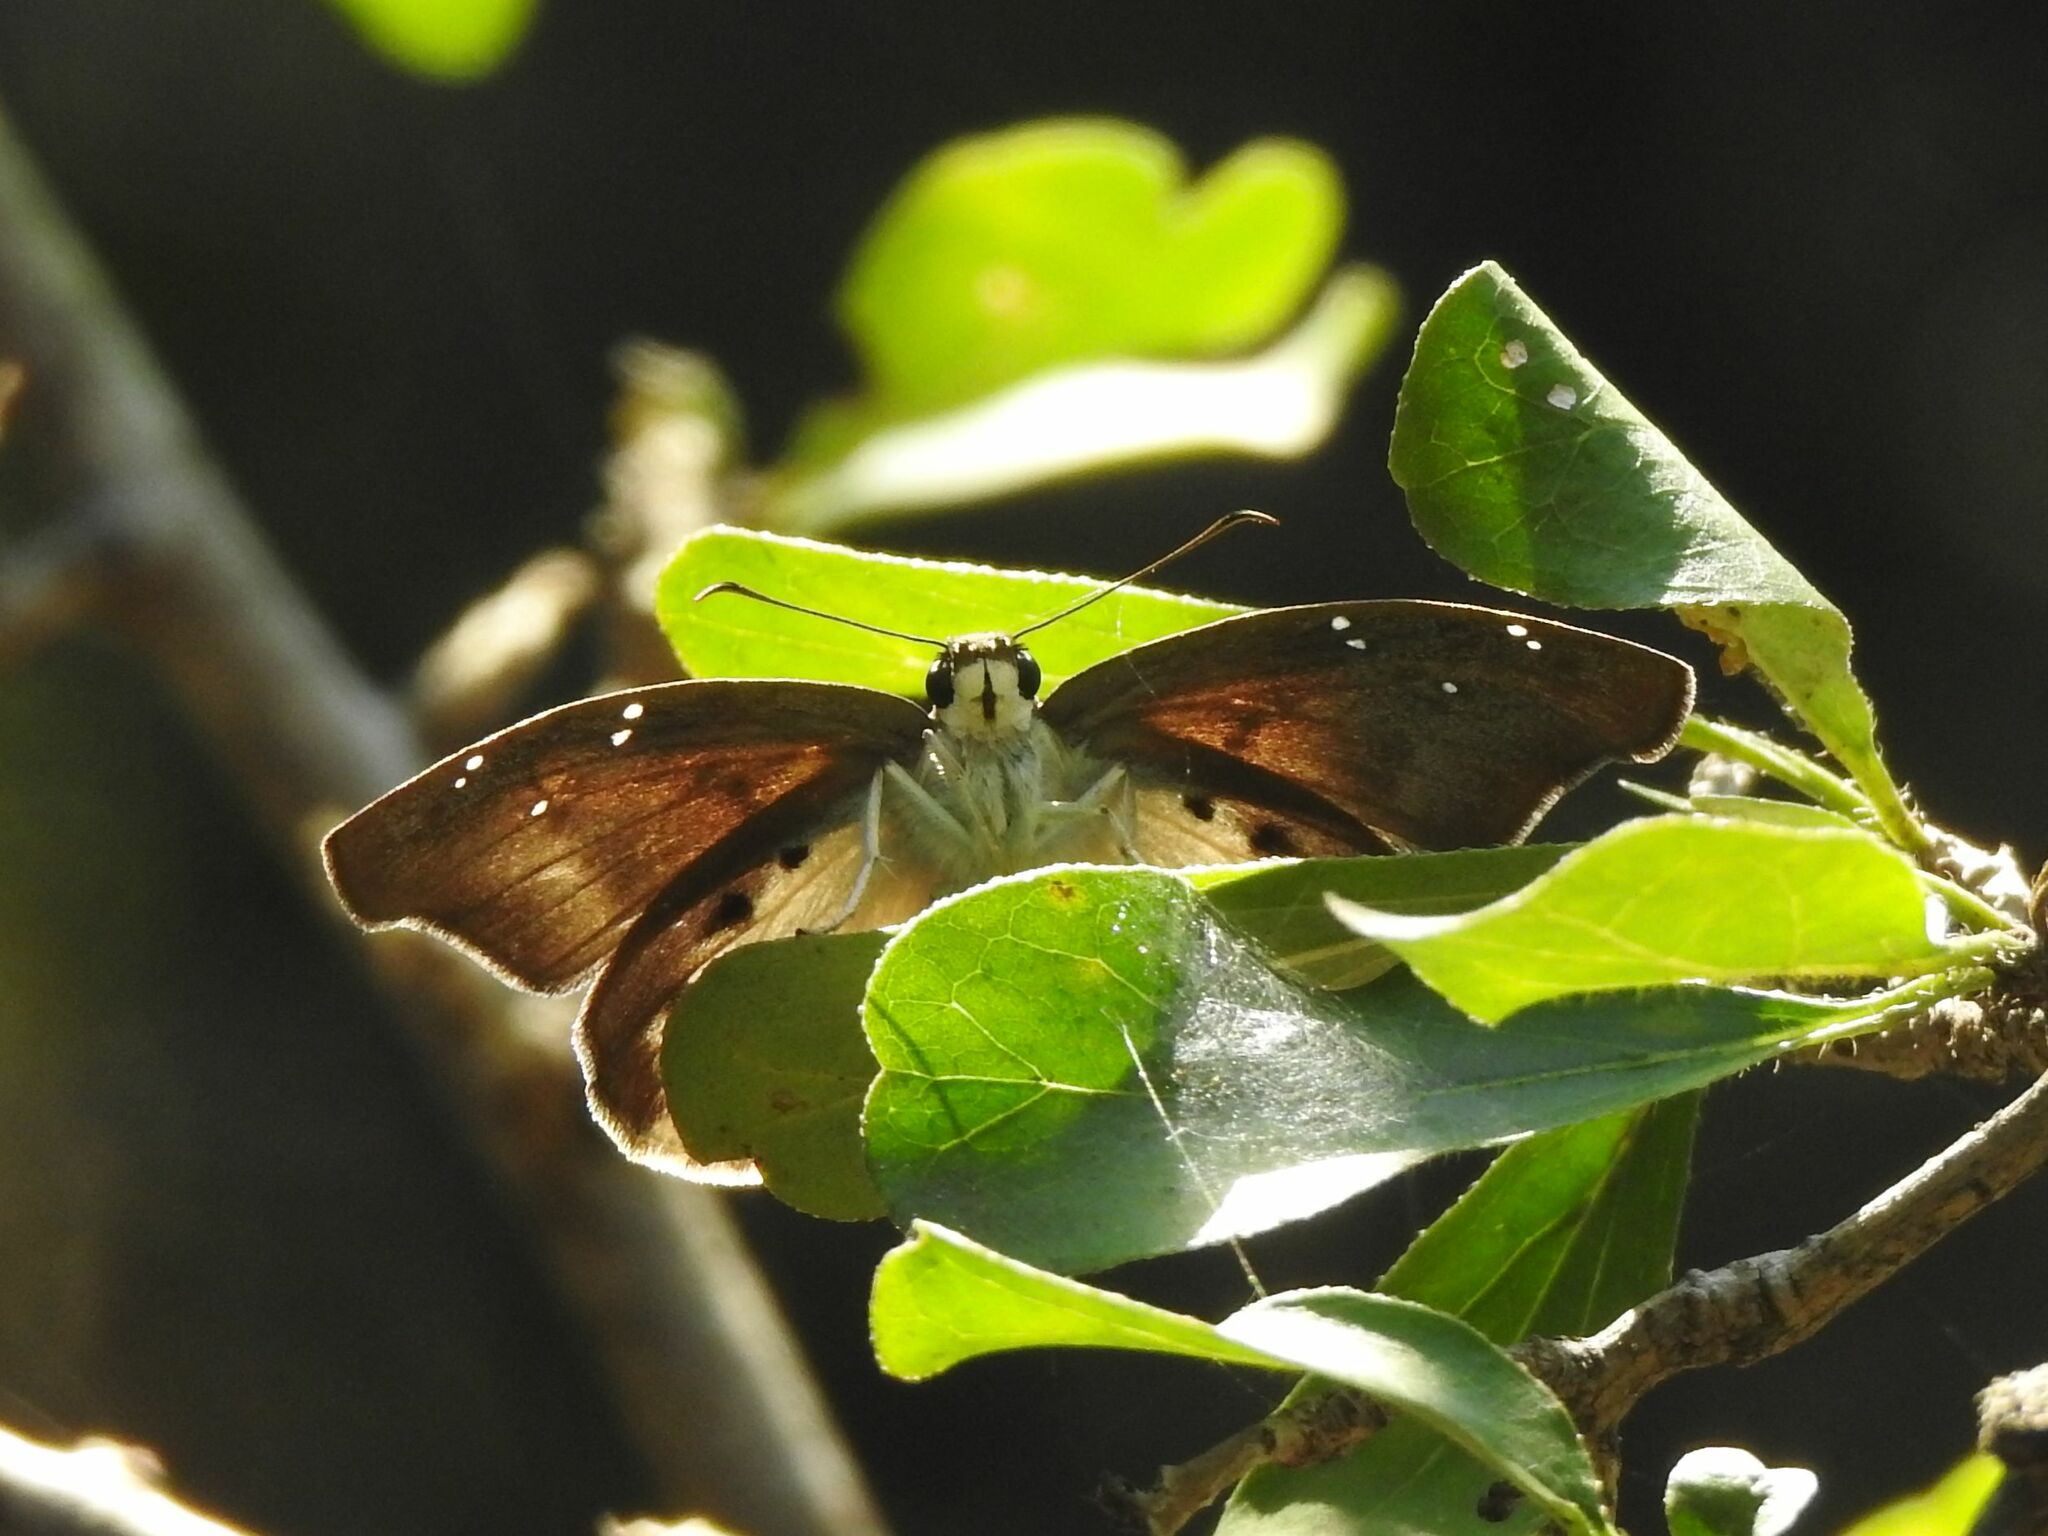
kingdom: Animalia
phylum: Arthropoda
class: Insecta
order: Lepidoptera
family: Hesperiidae
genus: Tagiades
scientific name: Tagiades flesus
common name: Clouded flat
